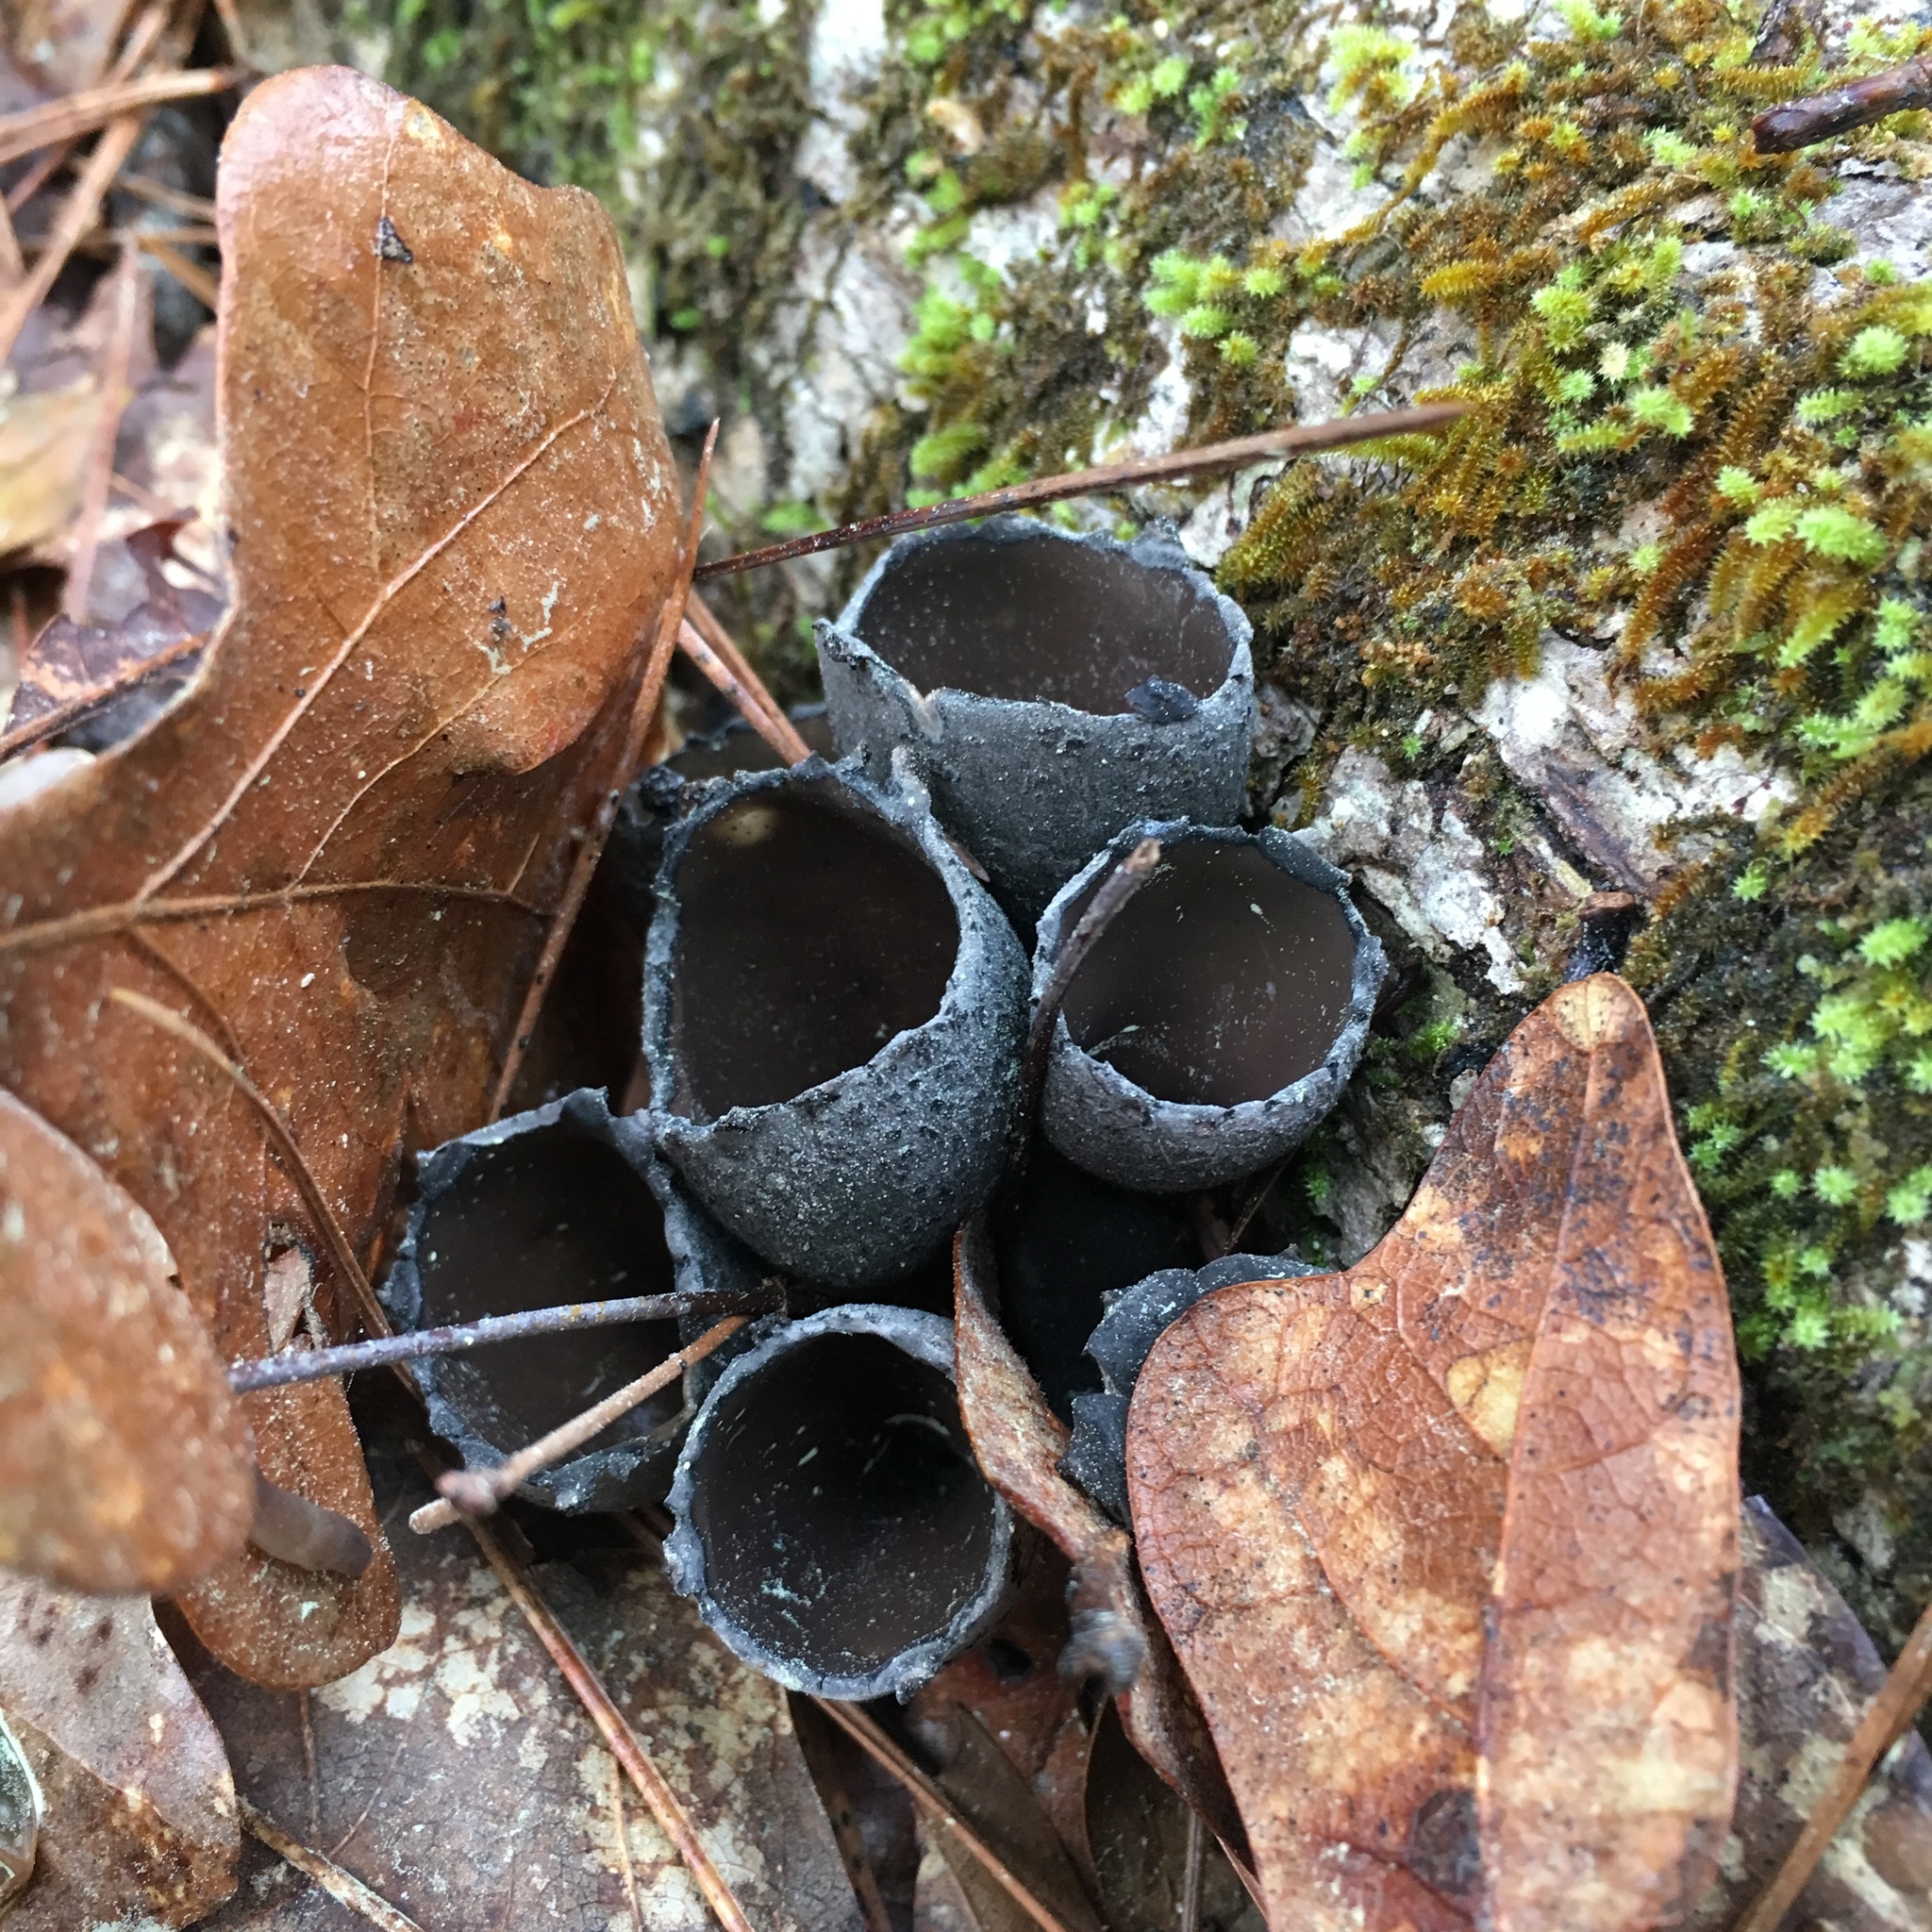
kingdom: Fungi
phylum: Ascomycota
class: Pezizomycetes
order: Pezizales
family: Sarcosomataceae
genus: Urnula
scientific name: Urnula craterium
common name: Devil's urn
